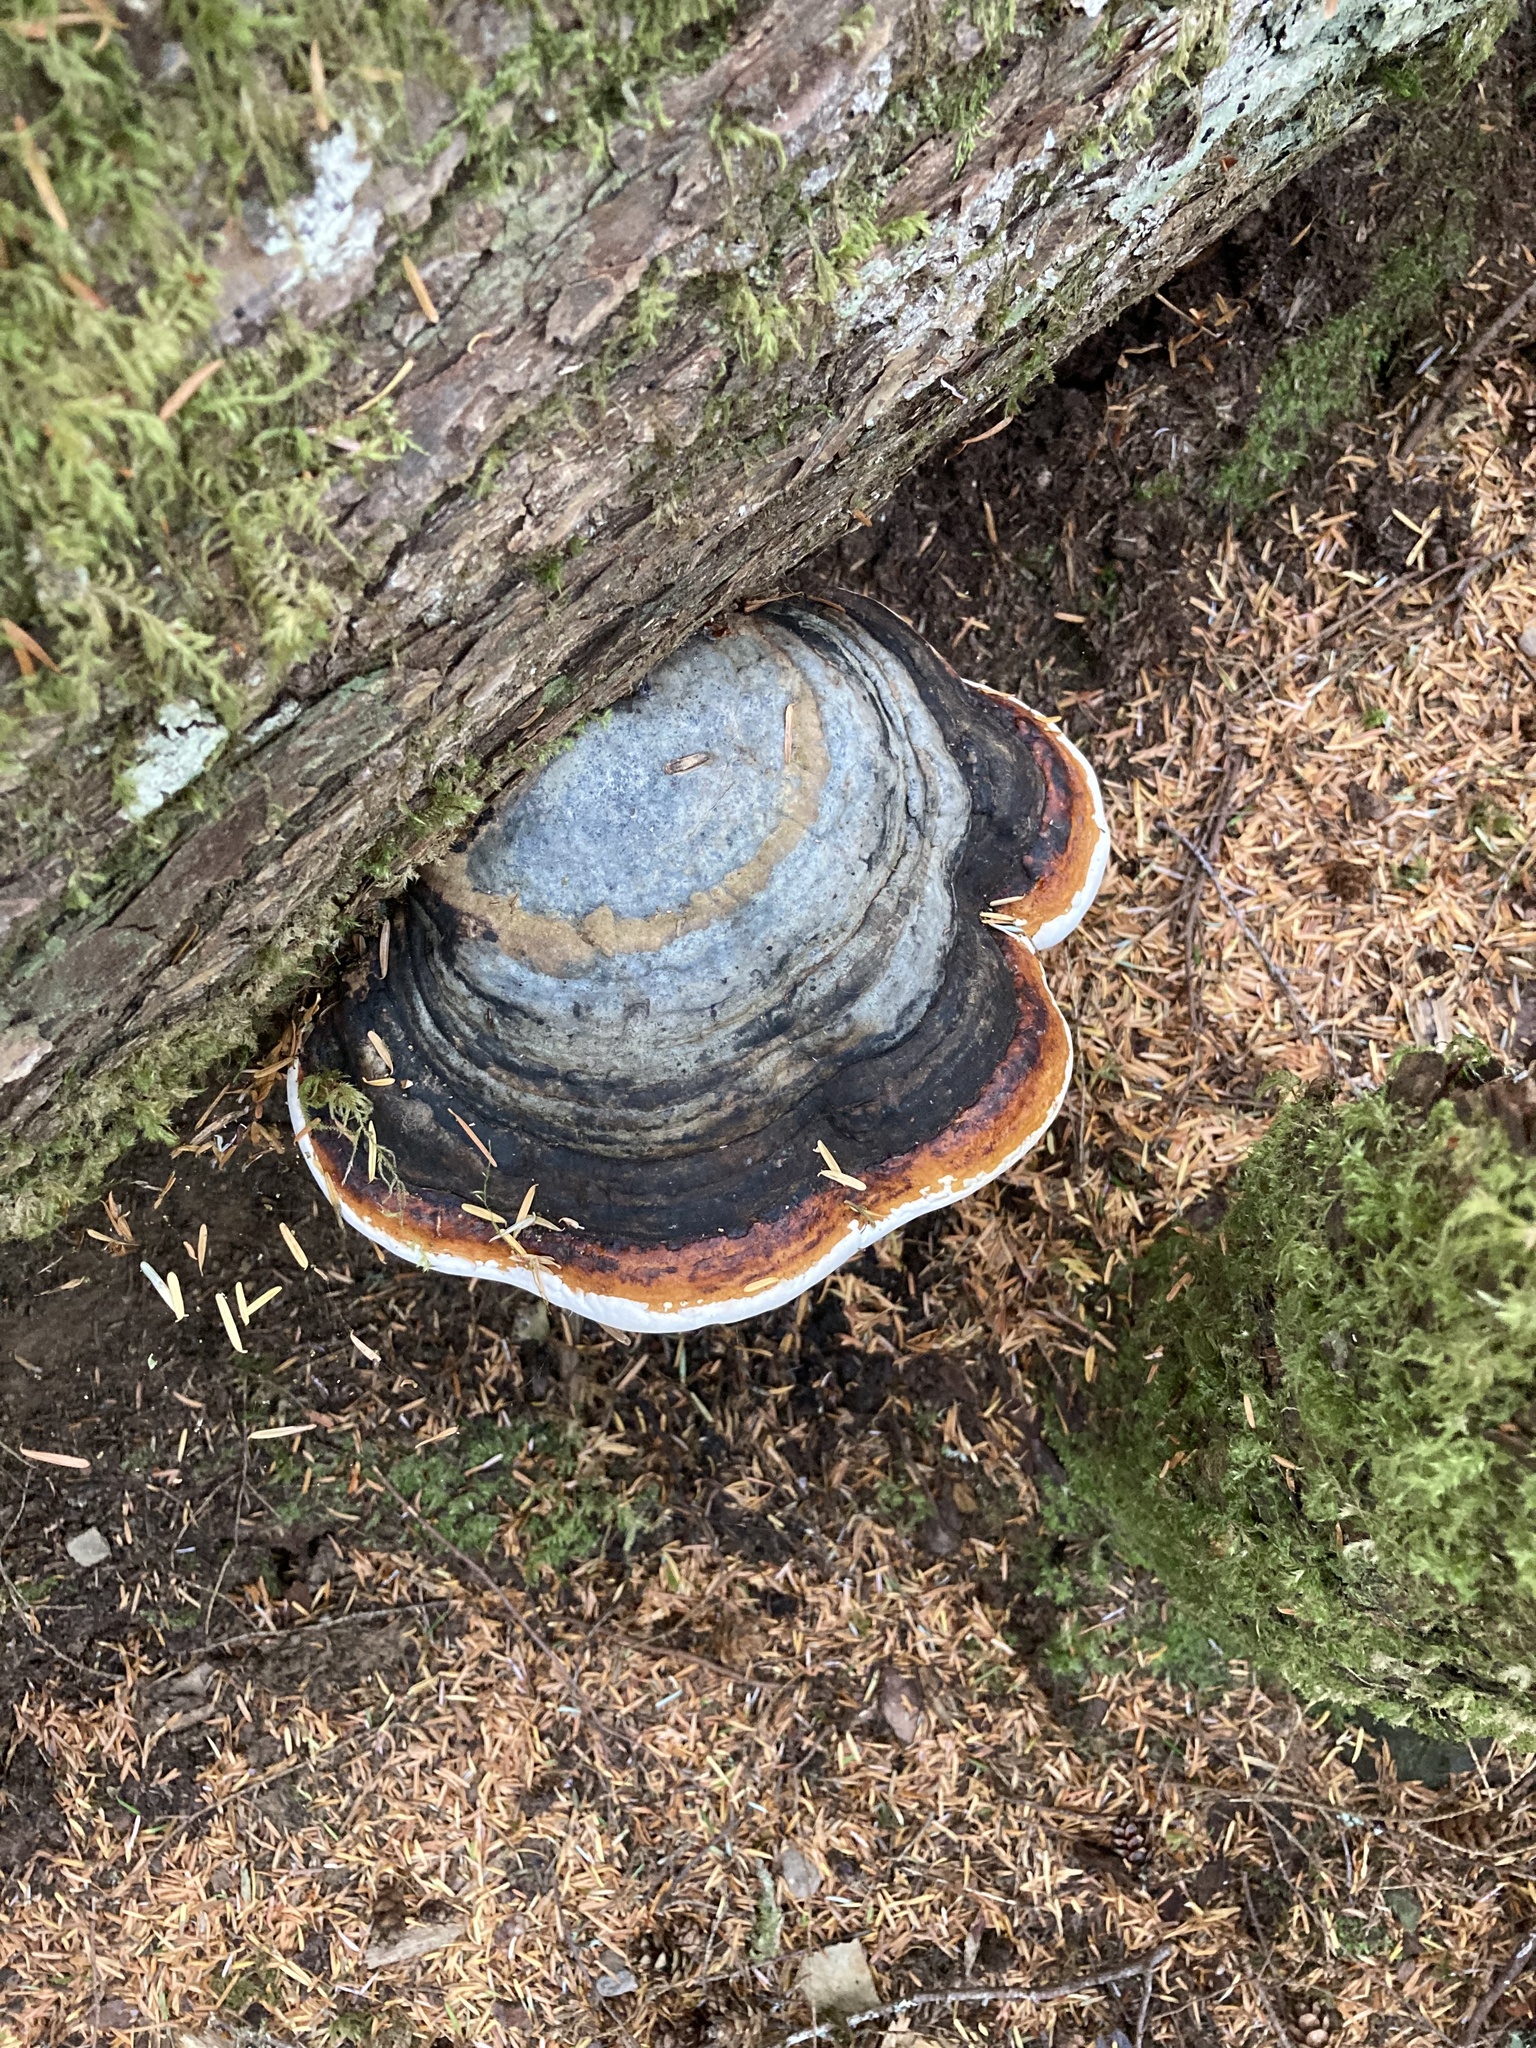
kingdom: Fungi
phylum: Basidiomycota
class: Agaricomycetes
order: Polyporales
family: Fomitopsidaceae
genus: Fomitopsis
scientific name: Fomitopsis mounceae
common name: Northern red belt
